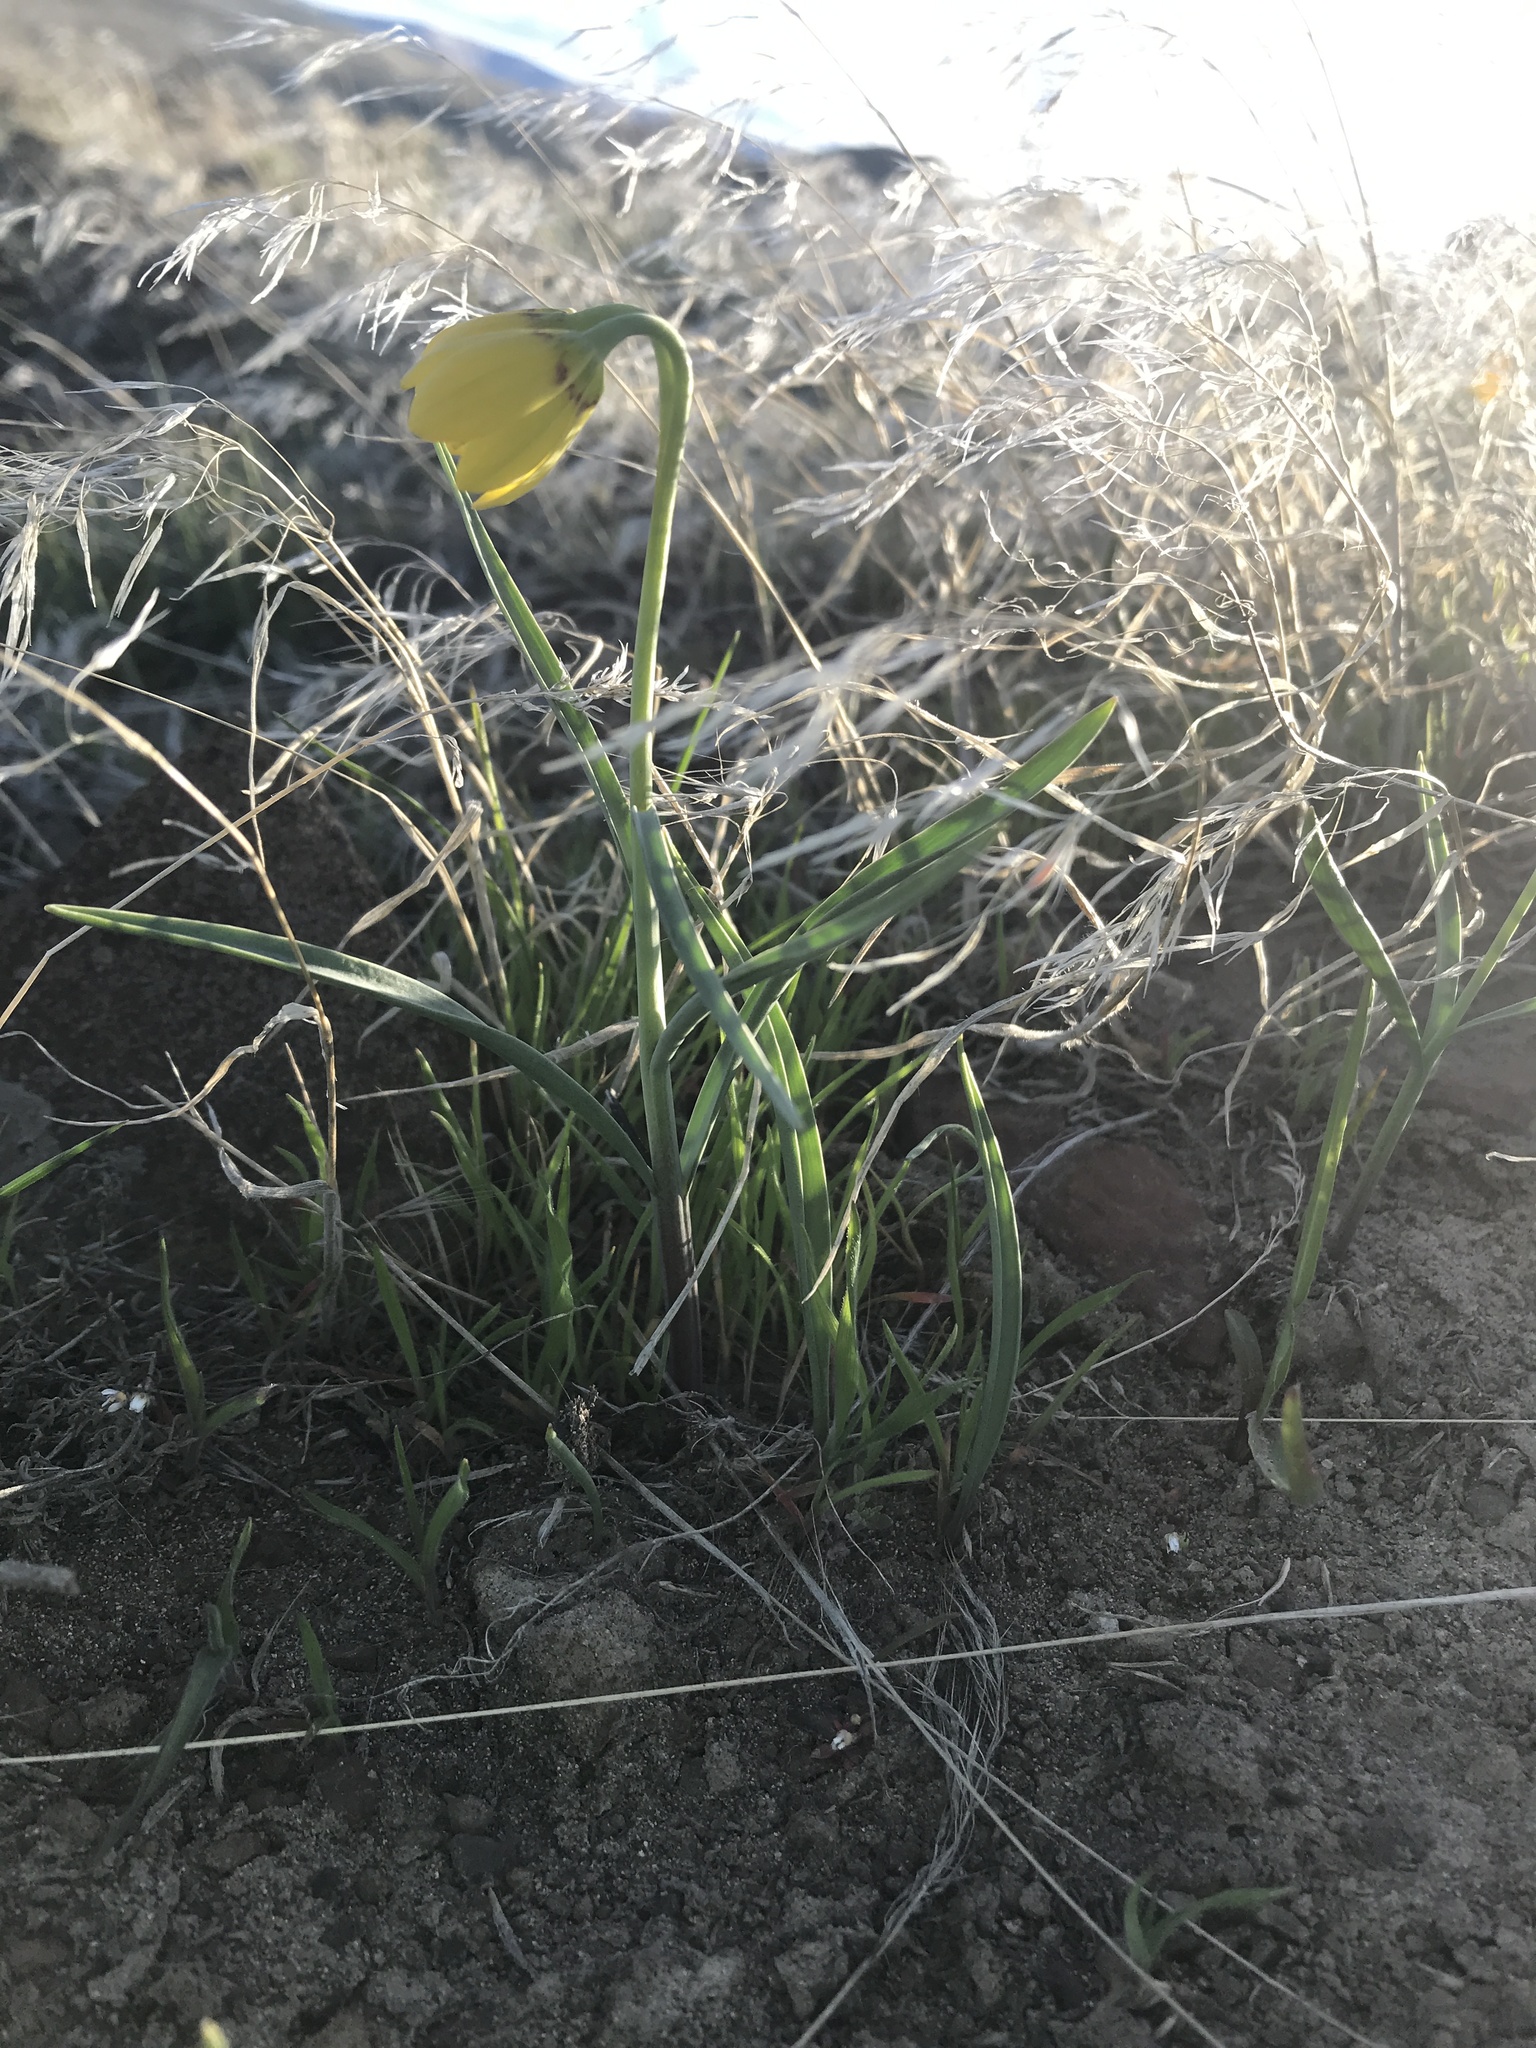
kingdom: Plantae
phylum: Tracheophyta
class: Liliopsida
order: Liliales
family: Liliaceae
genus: Fritillaria
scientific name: Fritillaria pudica
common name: Yellow fritillary
